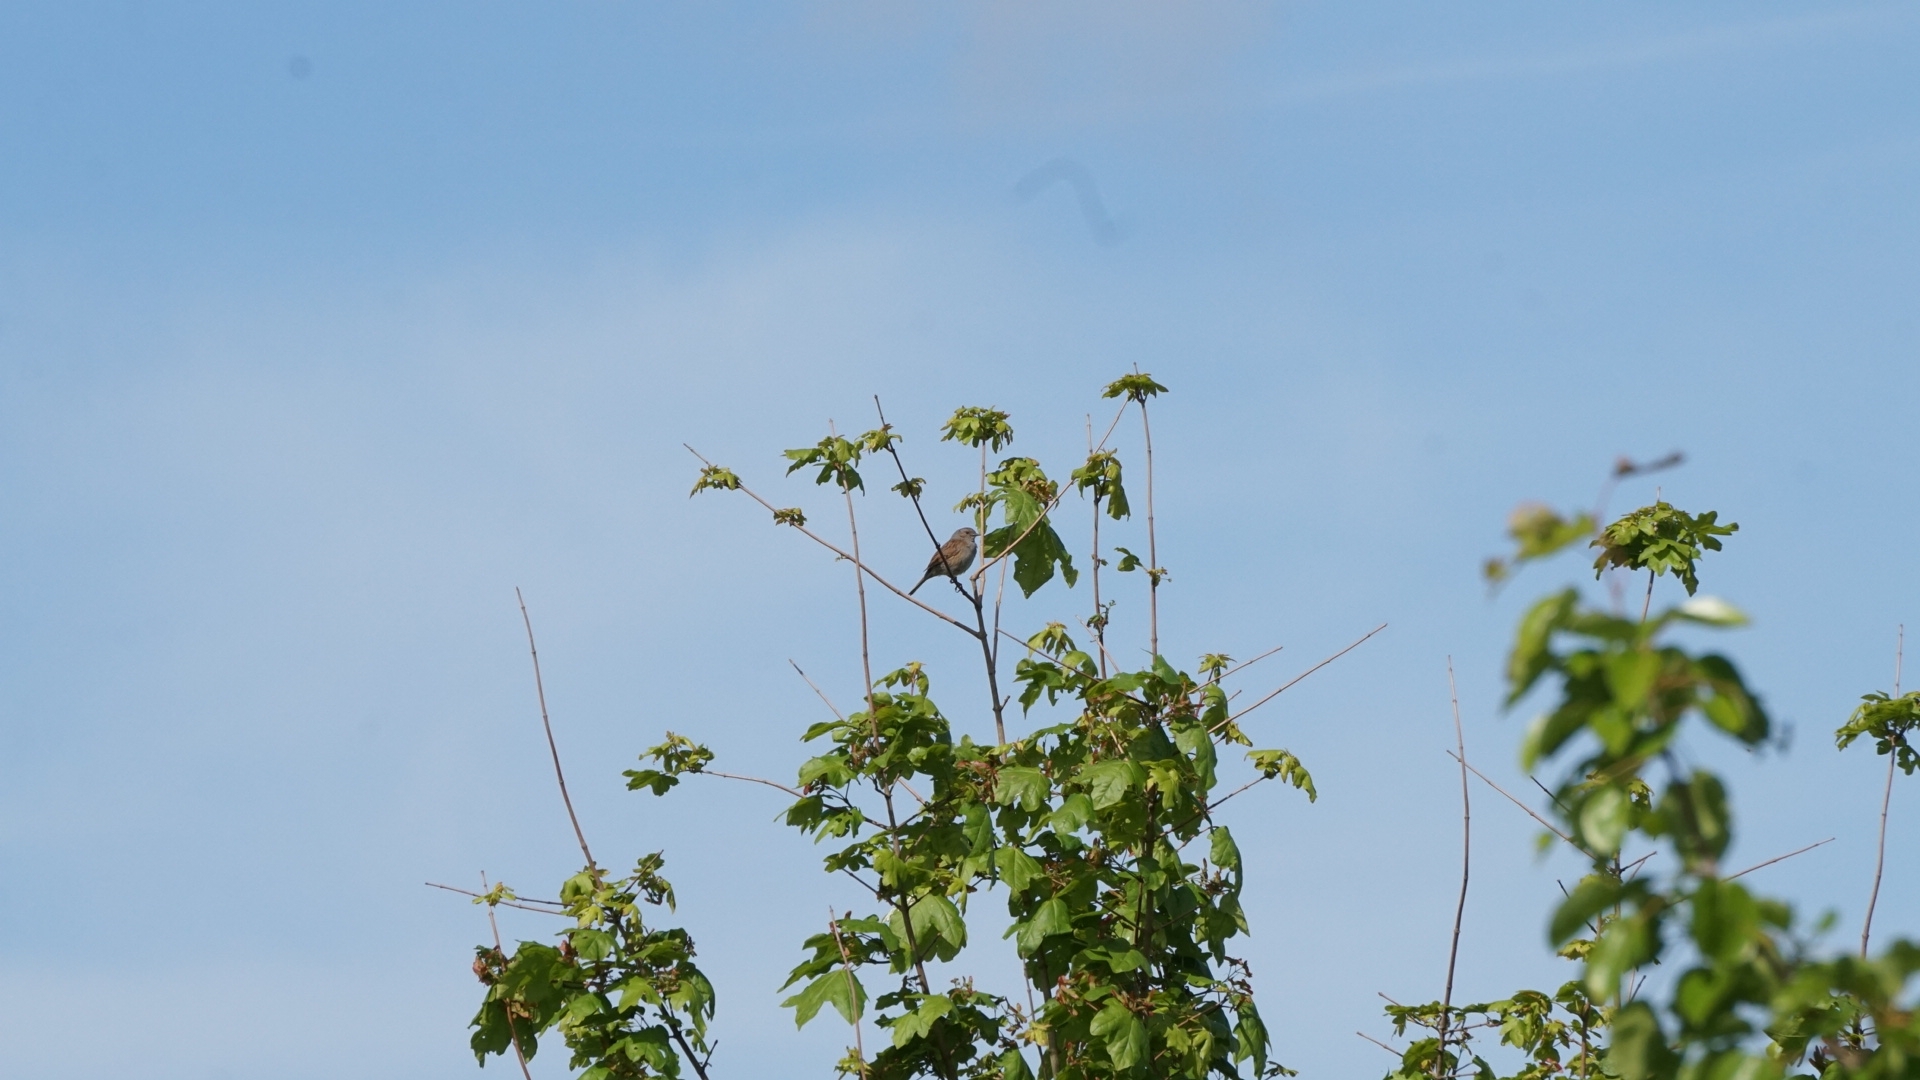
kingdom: Animalia
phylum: Chordata
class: Aves
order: Passeriformes
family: Prunellidae
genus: Prunella
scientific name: Prunella modularis
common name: Dunnock
